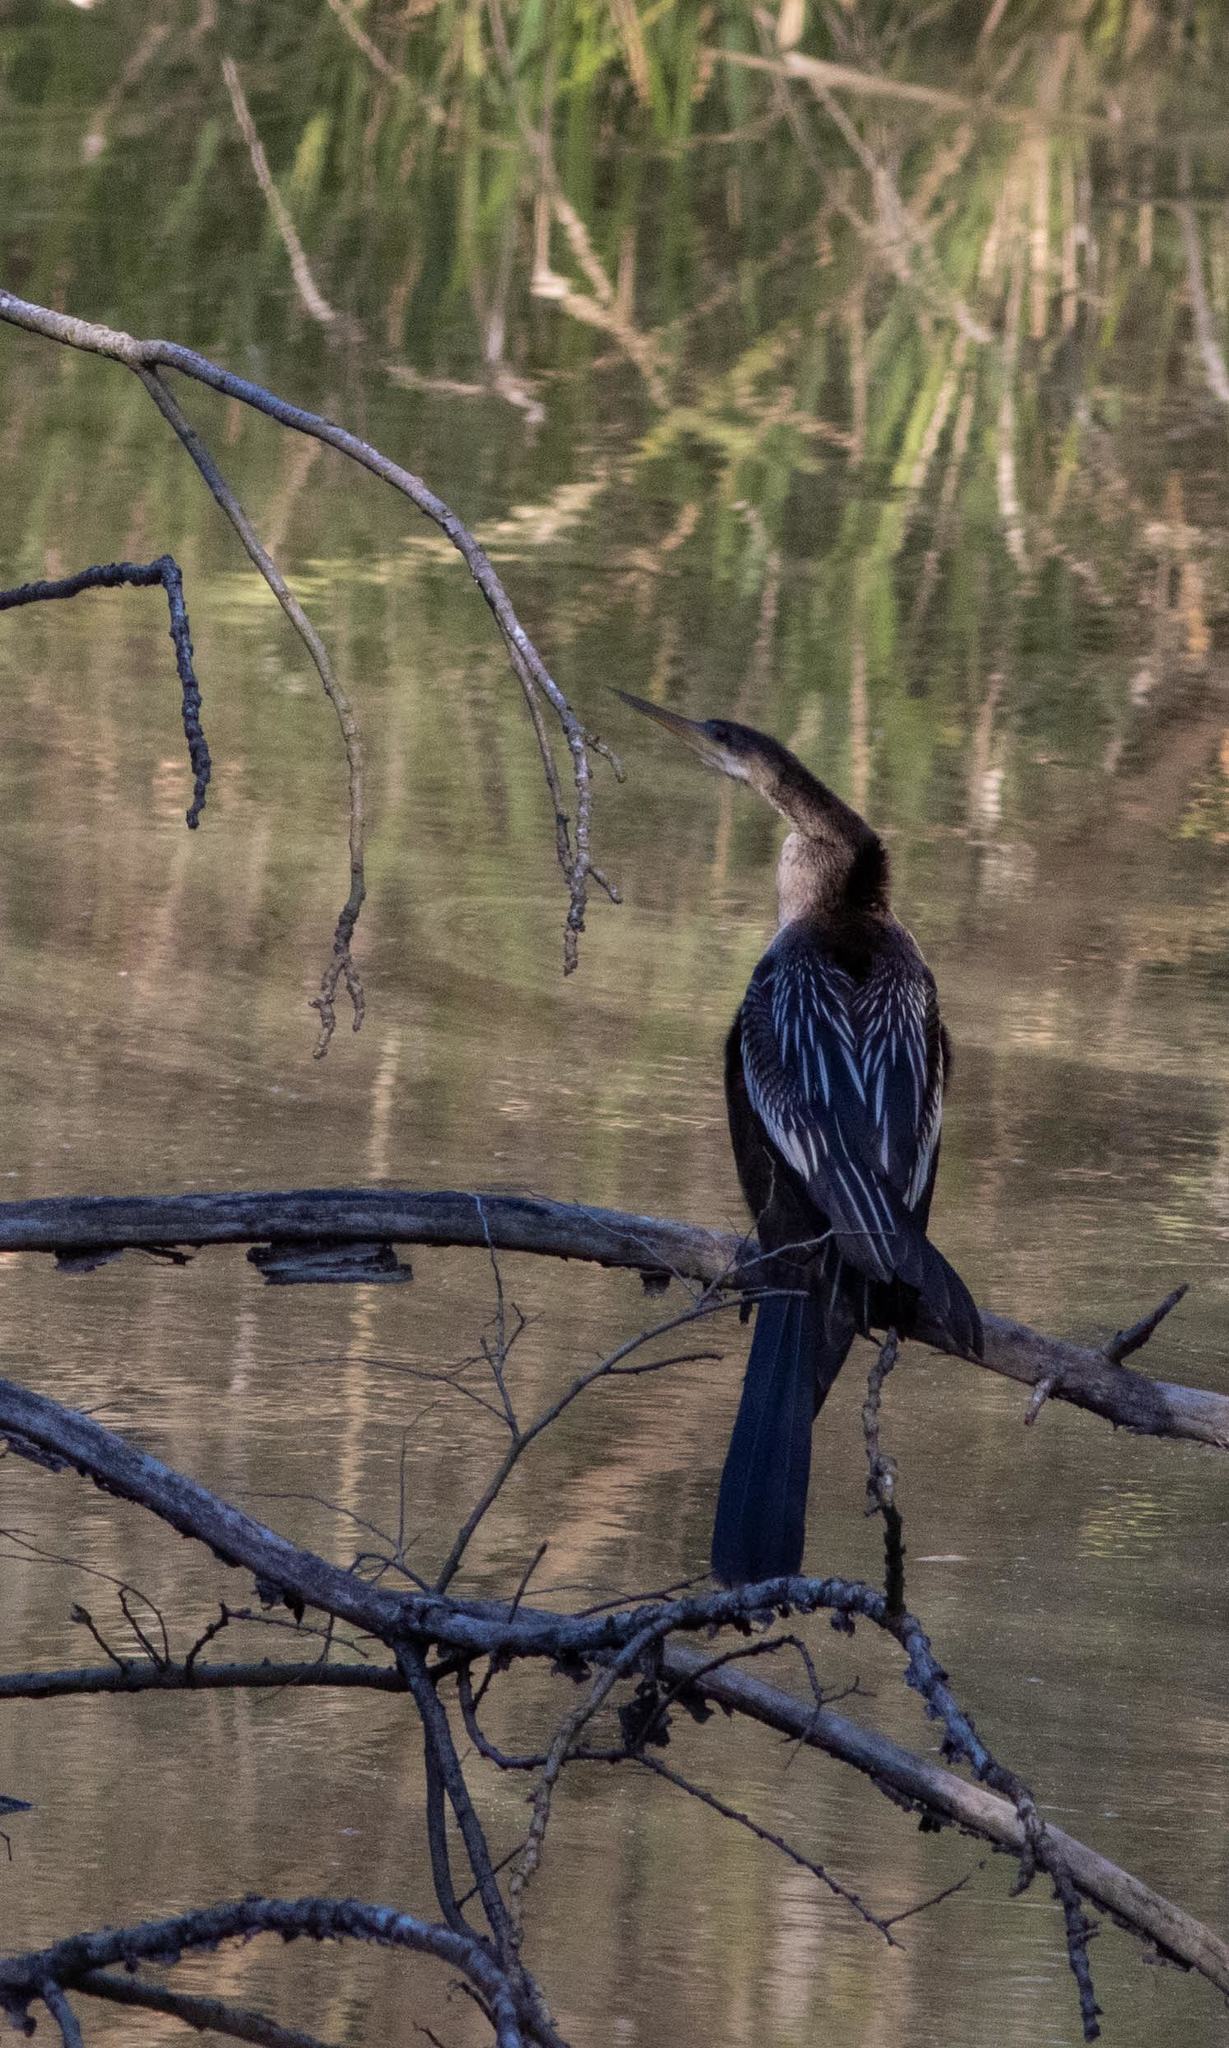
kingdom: Animalia
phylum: Chordata
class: Aves
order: Suliformes
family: Anhingidae
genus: Anhinga
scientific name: Anhinga anhinga
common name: Anhinga
